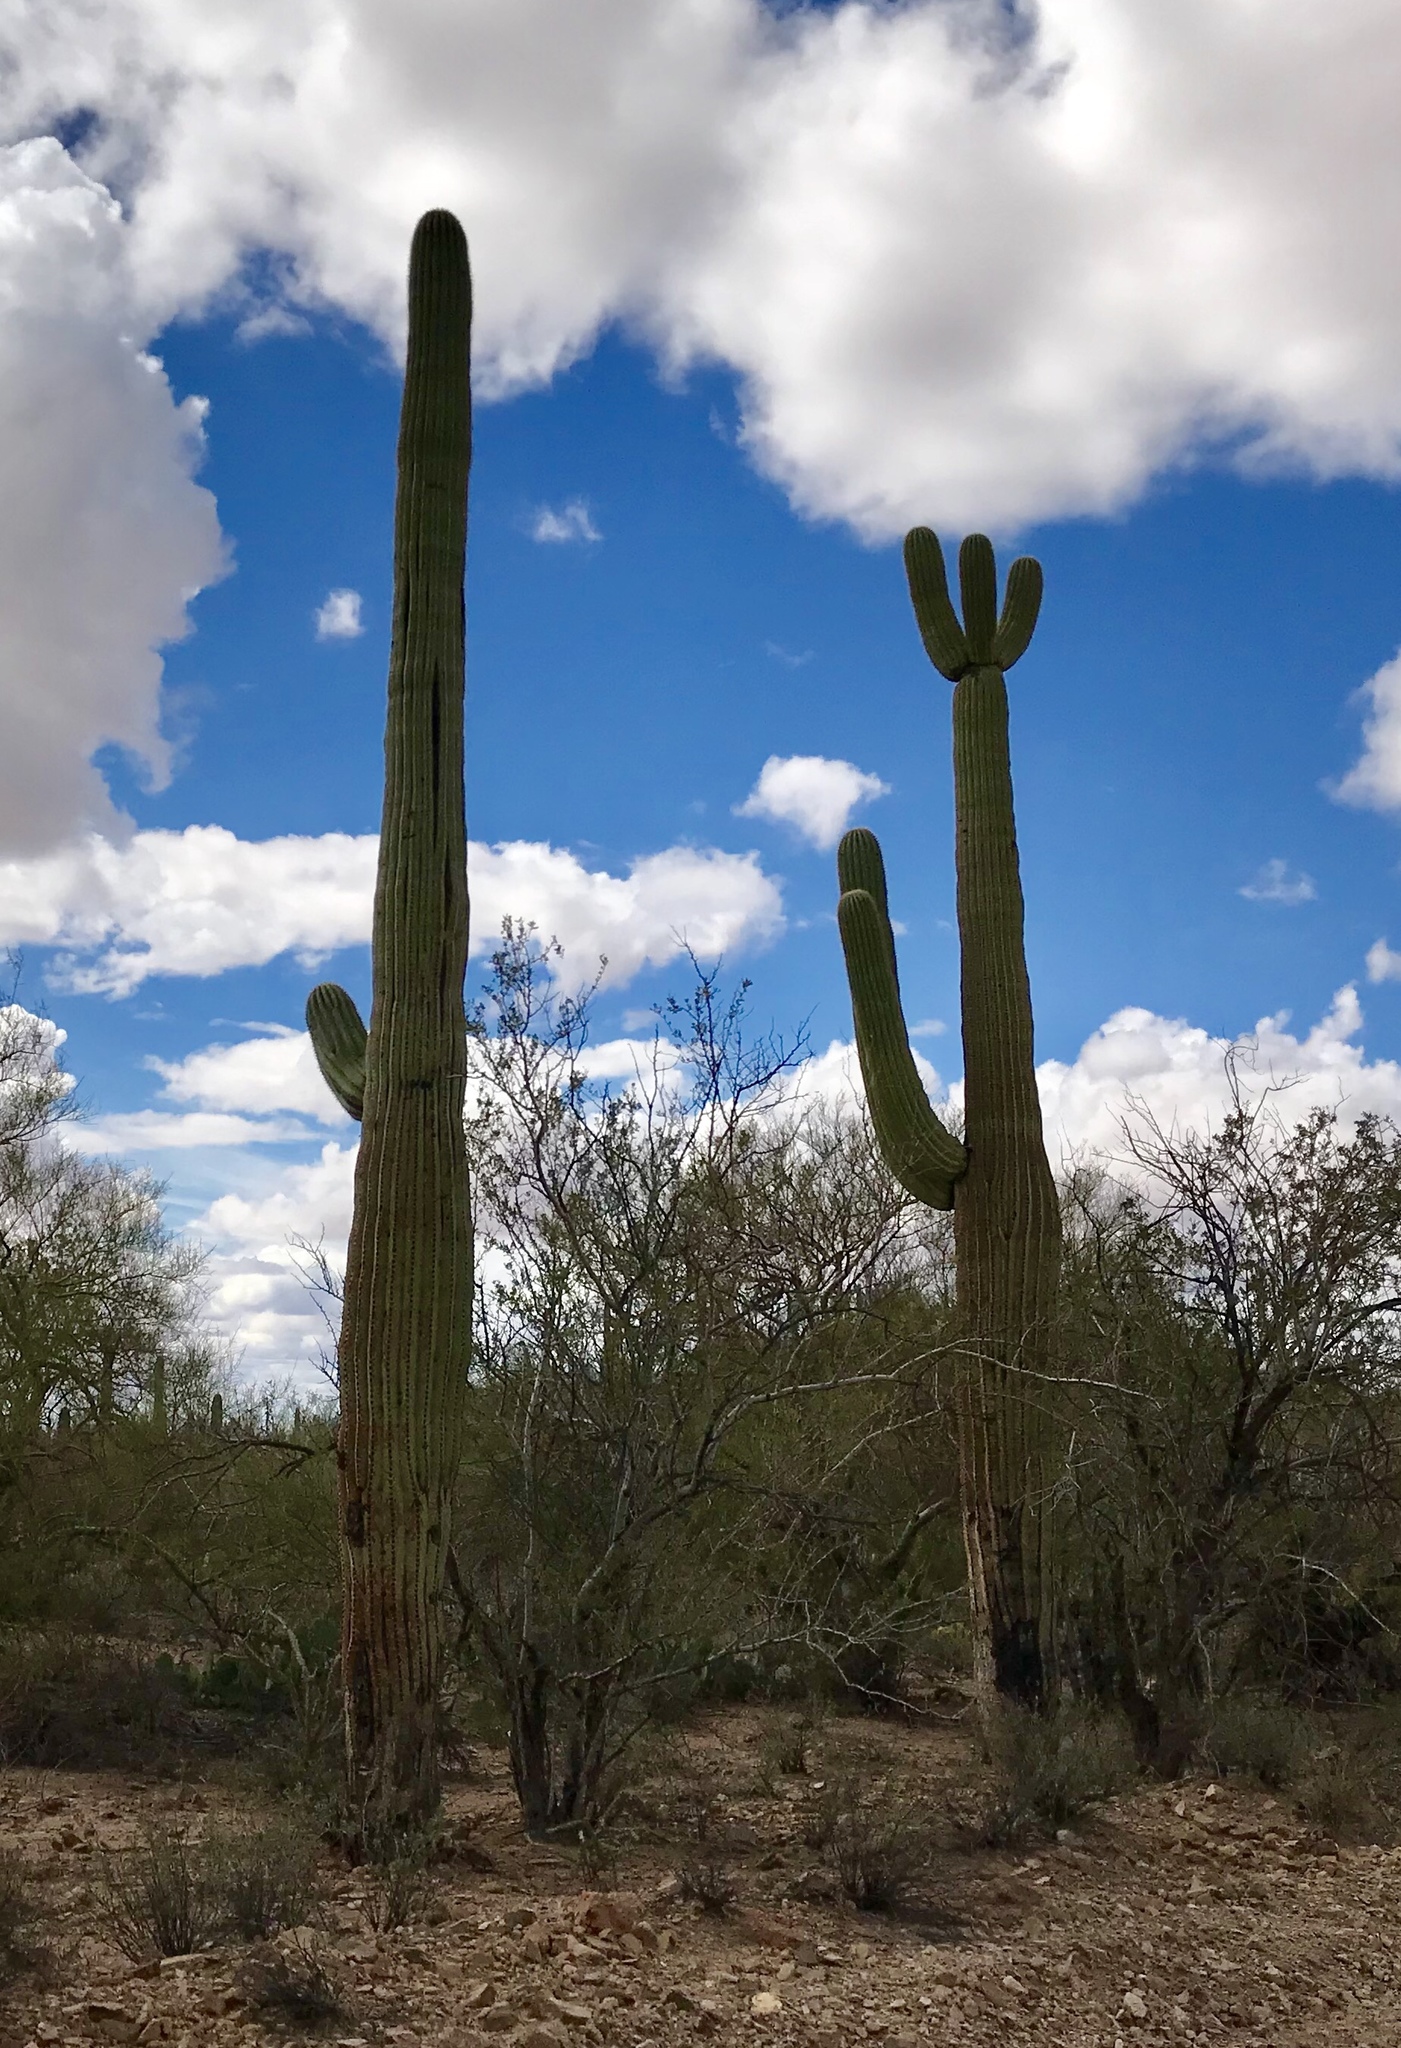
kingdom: Plantae
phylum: Tracheophyta
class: Magnoliopsida
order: Caryophyllales
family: Cactaceae
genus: Carnegiea
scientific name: Carnegiea gigantea
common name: Saguaro
